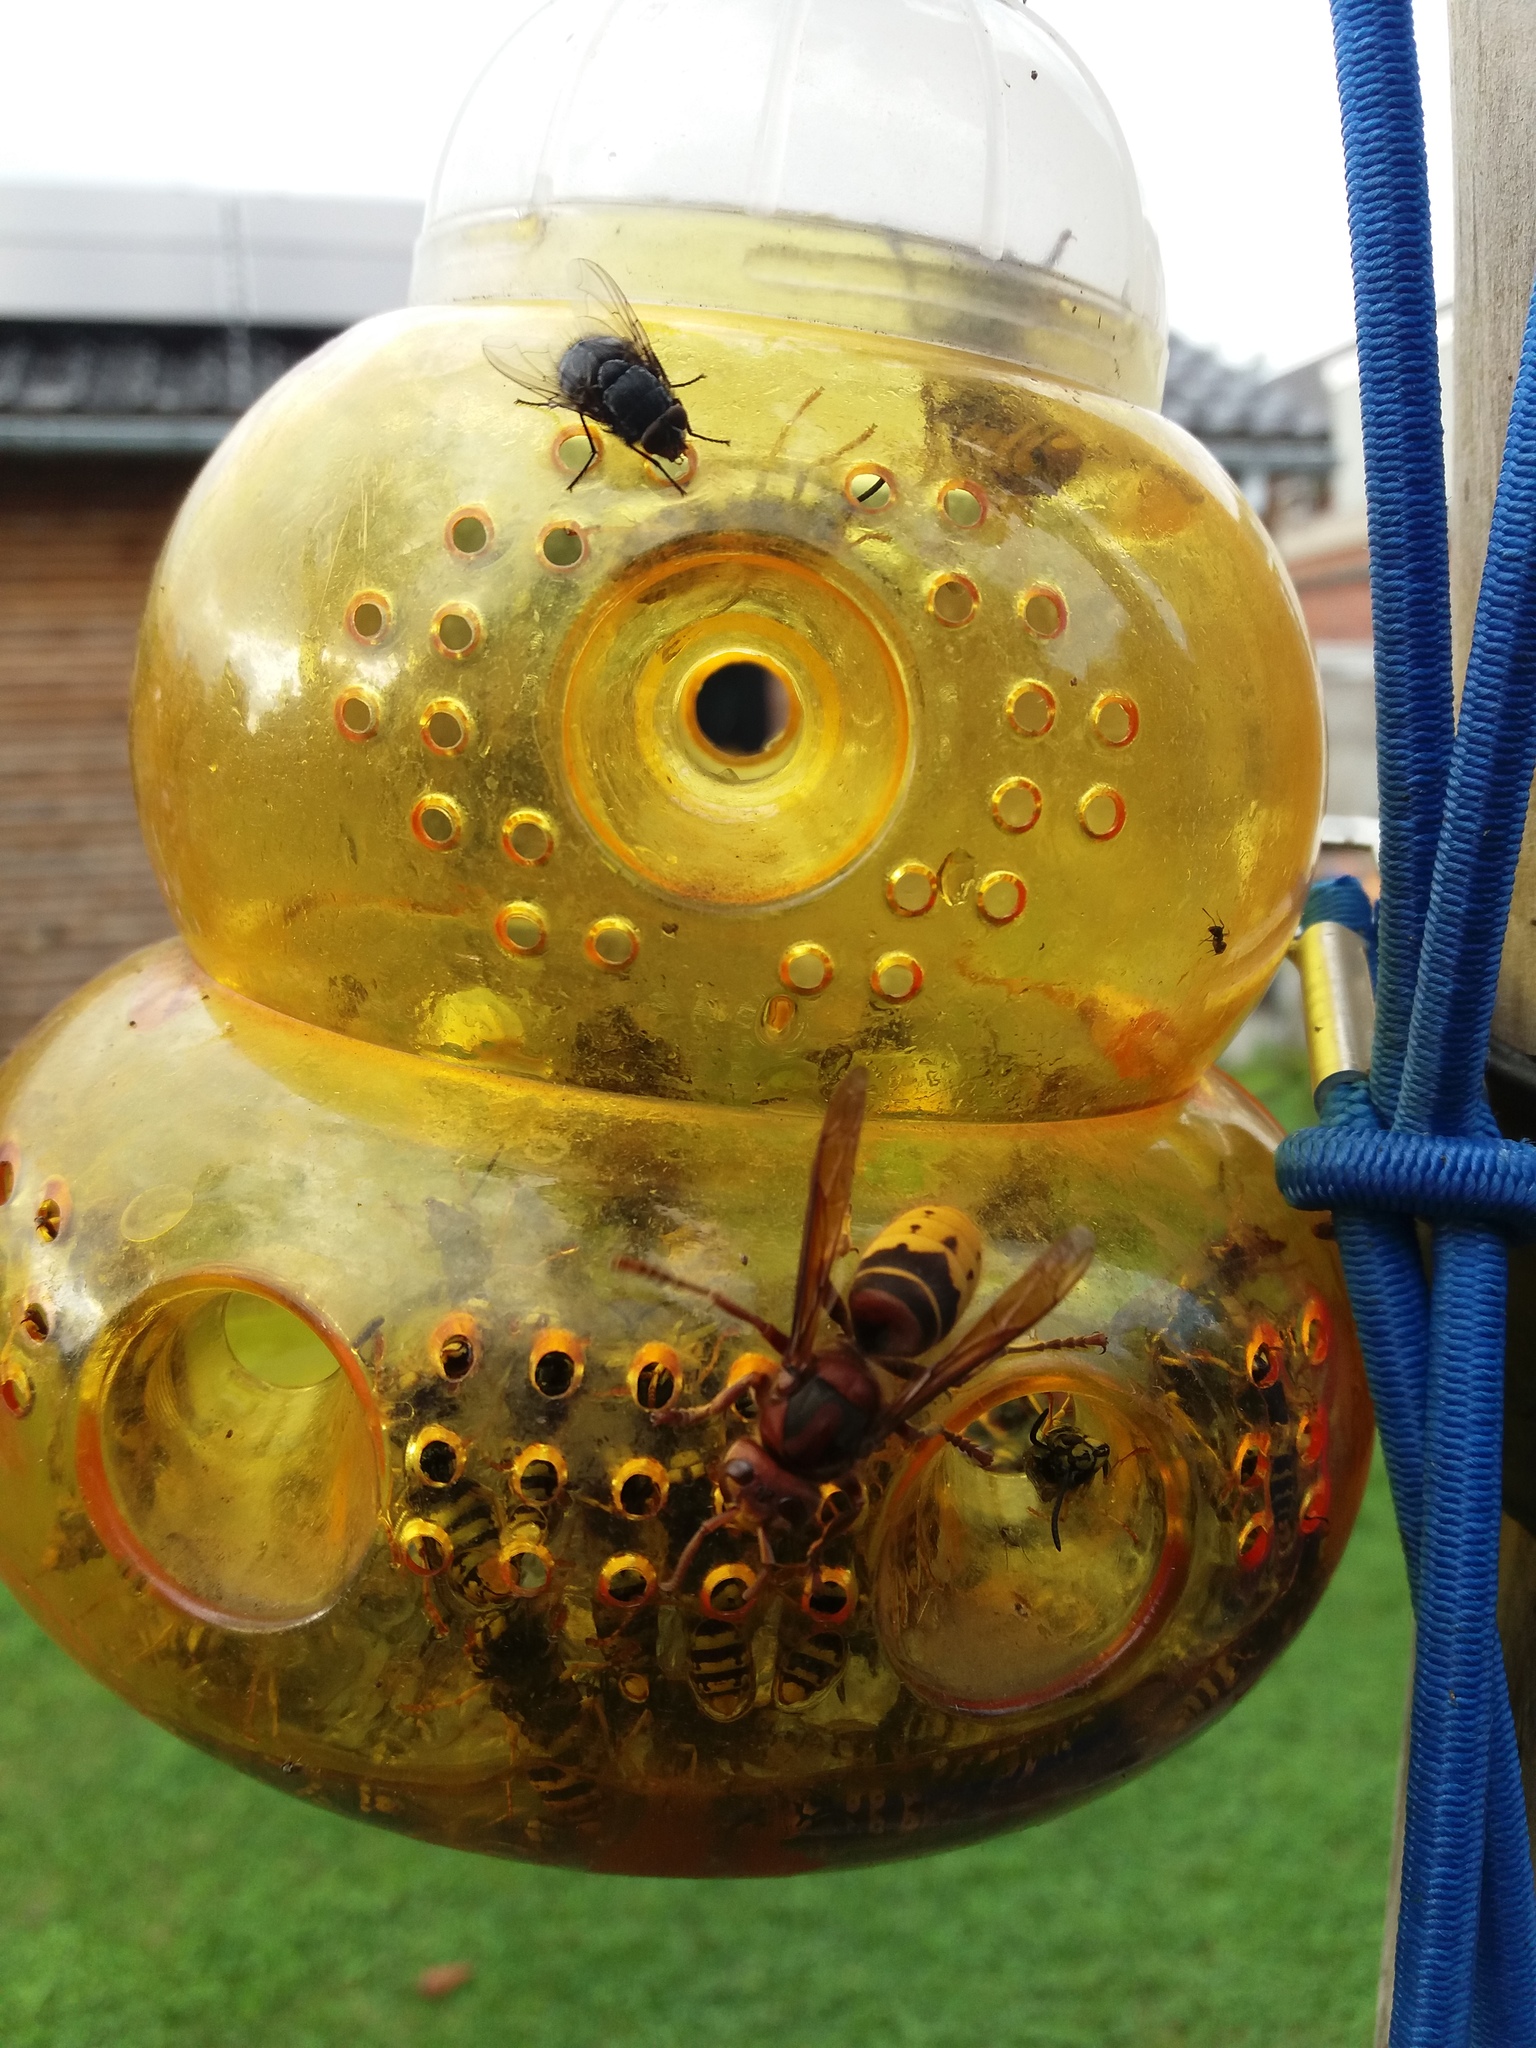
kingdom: Animalia
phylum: Arthropoda
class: Insecta
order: Hymenoptera
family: Vespidae
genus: Vespa
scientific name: Vespa crabro
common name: Hornet
